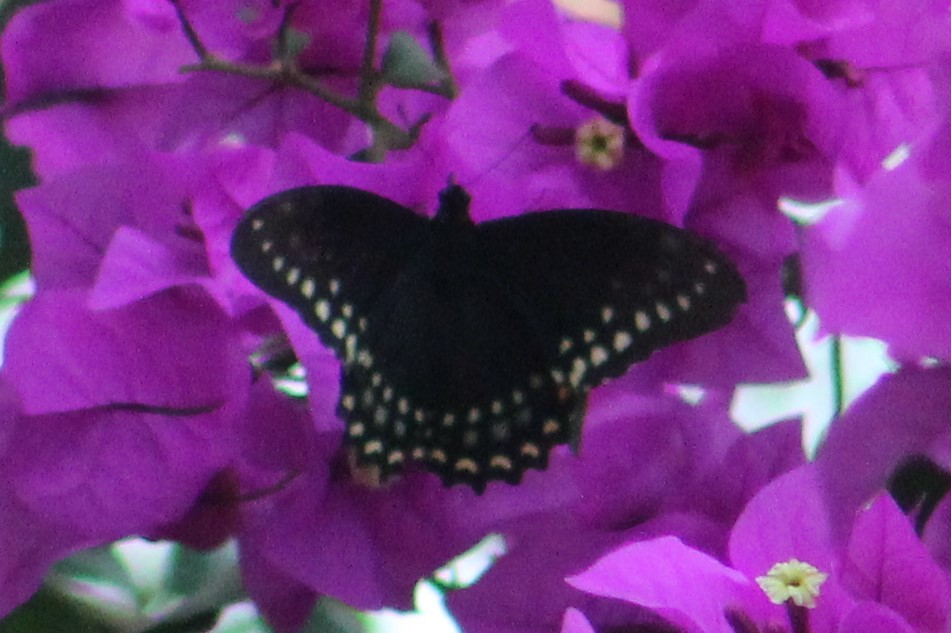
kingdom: Animalia
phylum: Arthropoda
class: Insecta
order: Lepidoptera
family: Papilionidae
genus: Papilio
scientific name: Papilio menatius
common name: Victorine swallowtail
